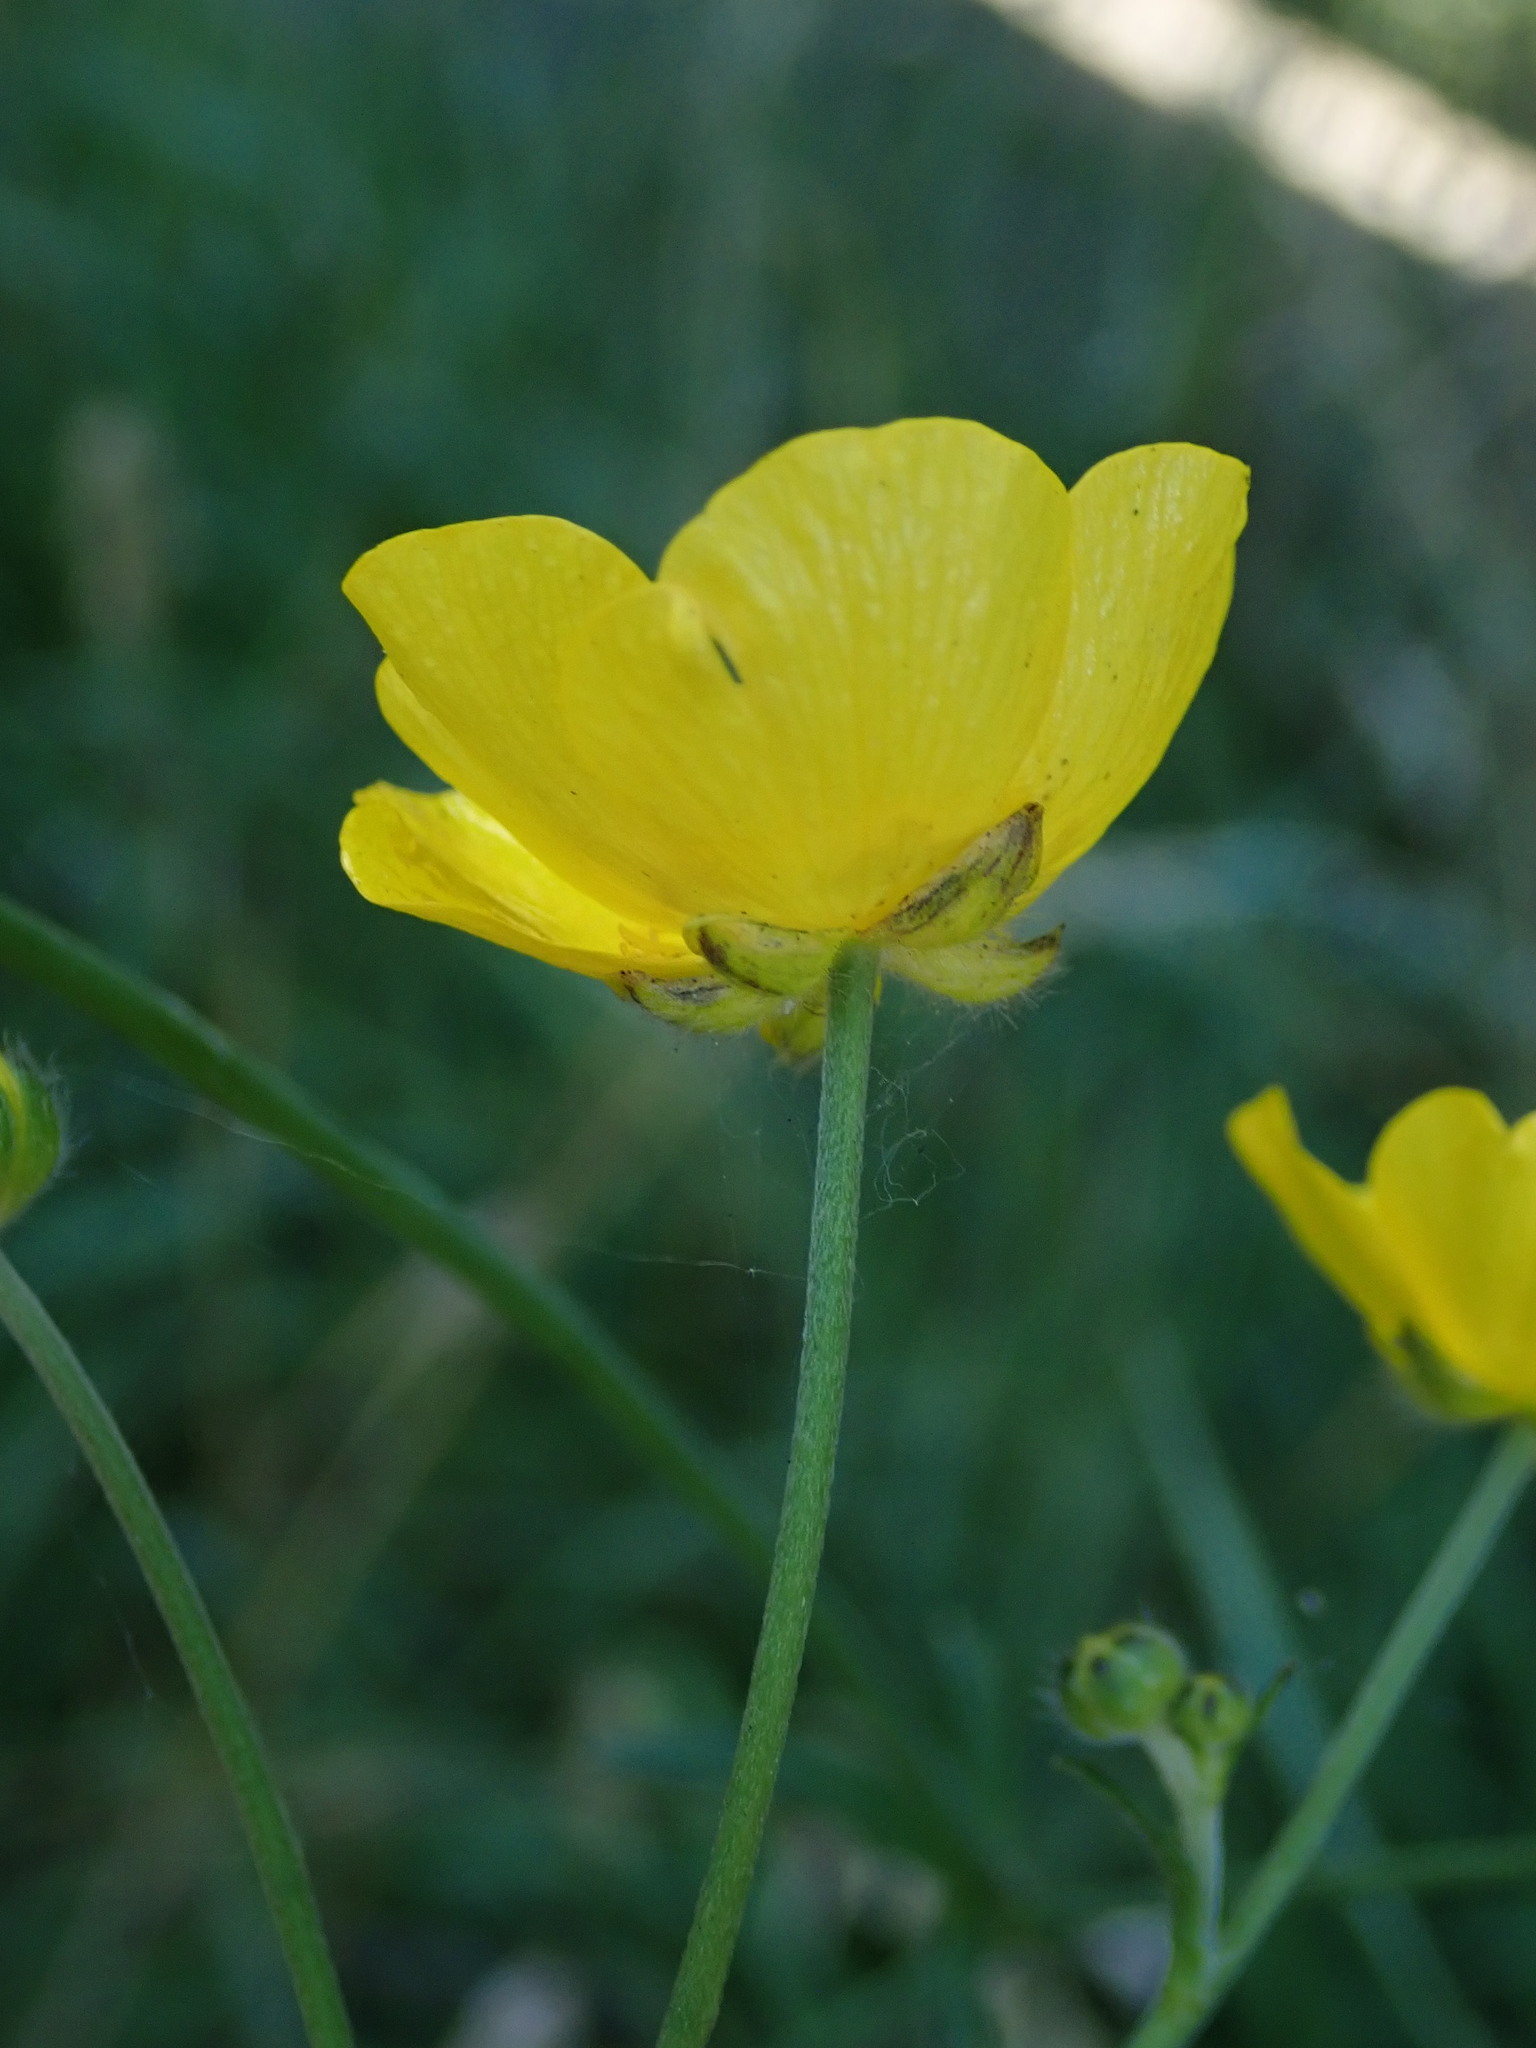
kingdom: Plantae
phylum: Tracheophyta
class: Magnoliopsida
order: Ranunculales
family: Ranunculaceae
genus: Ranunculus
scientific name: Ranunculus acris
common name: Meadow buttercup
